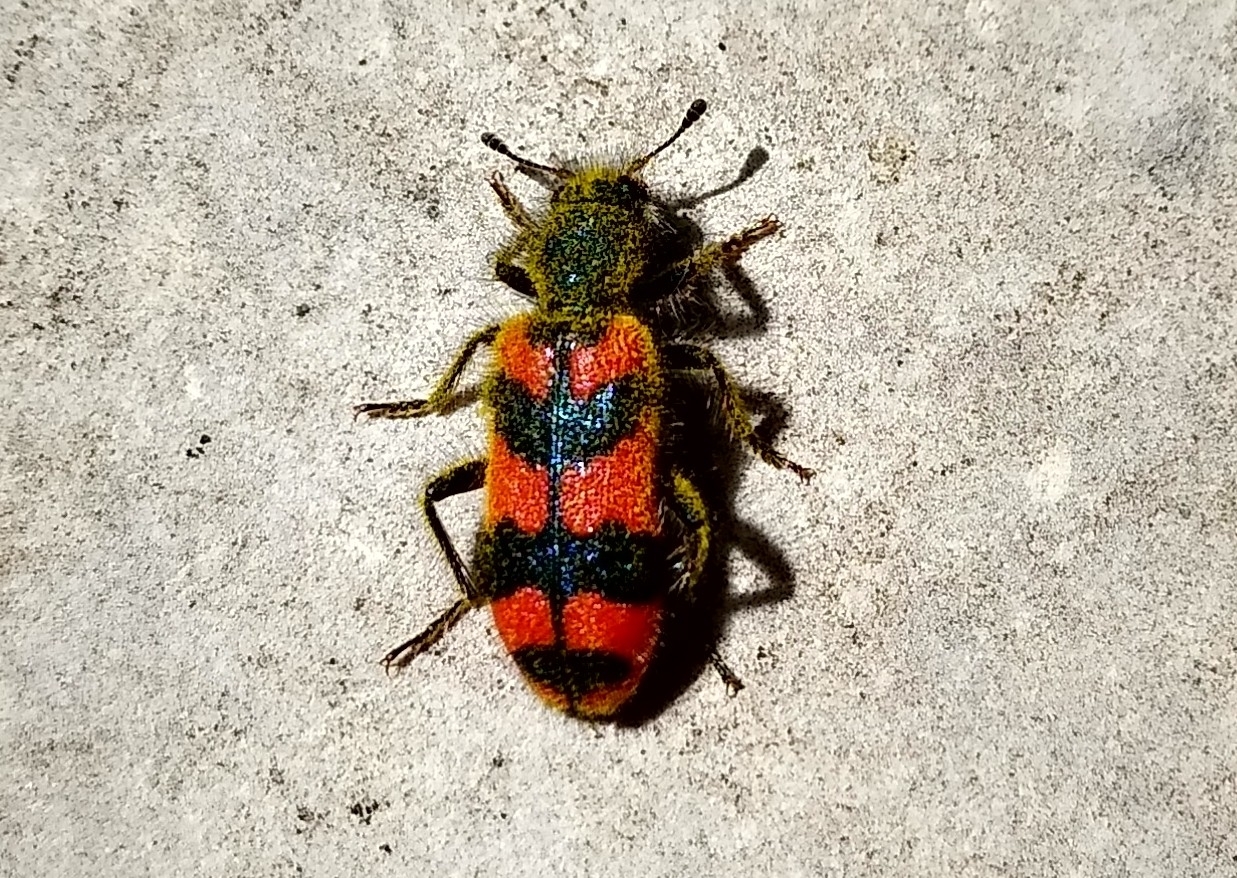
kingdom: Animalia
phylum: Arthropoda
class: Insecta
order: Coleoptera
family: Cleridae
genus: Trichodes
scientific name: Trichodes alvearius
